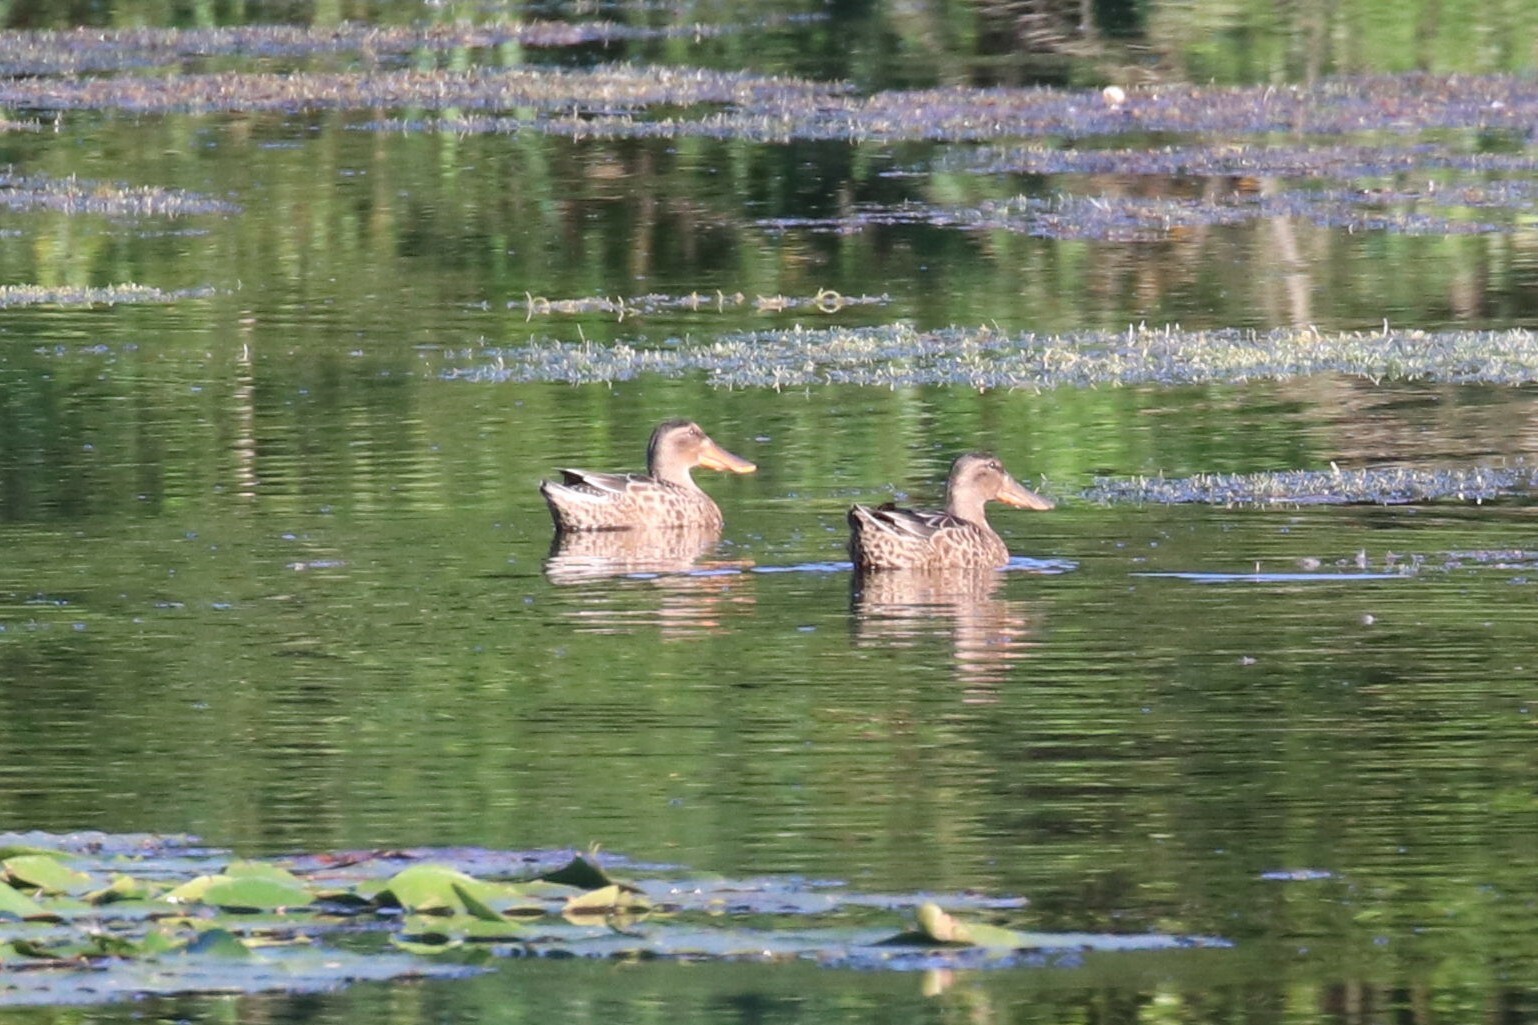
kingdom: Animalia
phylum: Chordata
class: Aves
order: Anseriformes
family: Anatidae
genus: Spatula
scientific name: Spatula clypeata
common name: Northern shoveler
